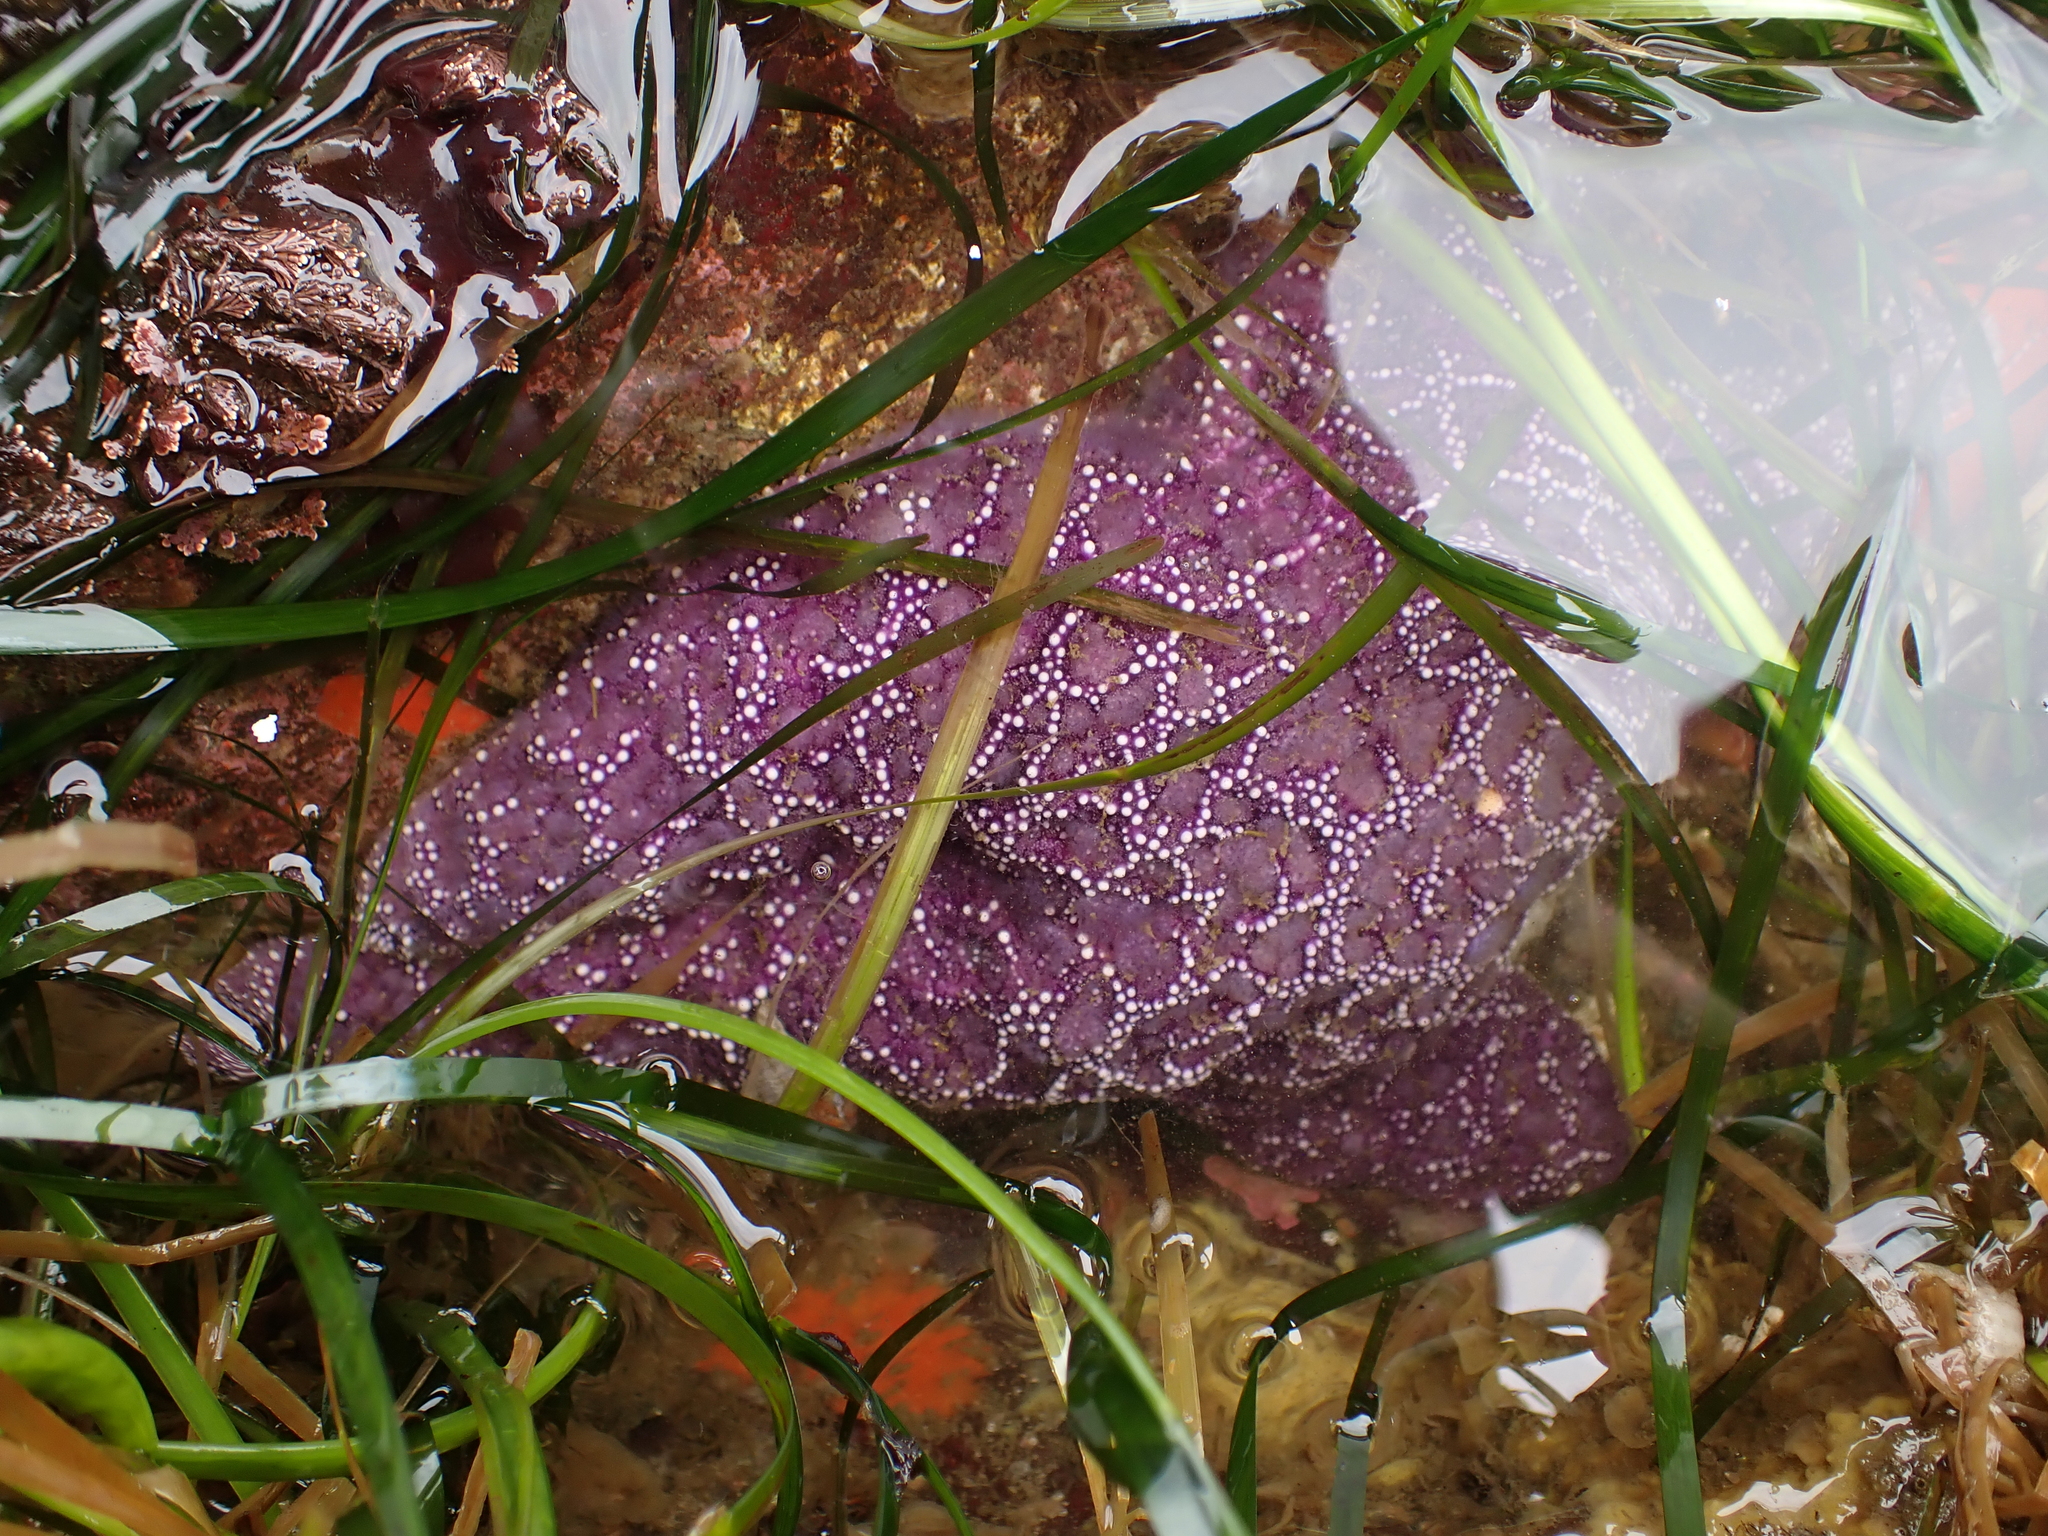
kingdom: Animalia
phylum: Echinodermata
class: Asteroidea
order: Forcipulatida
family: Asteriidae
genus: Pisaster
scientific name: Pisaster ochraceus
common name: Ochre stars
